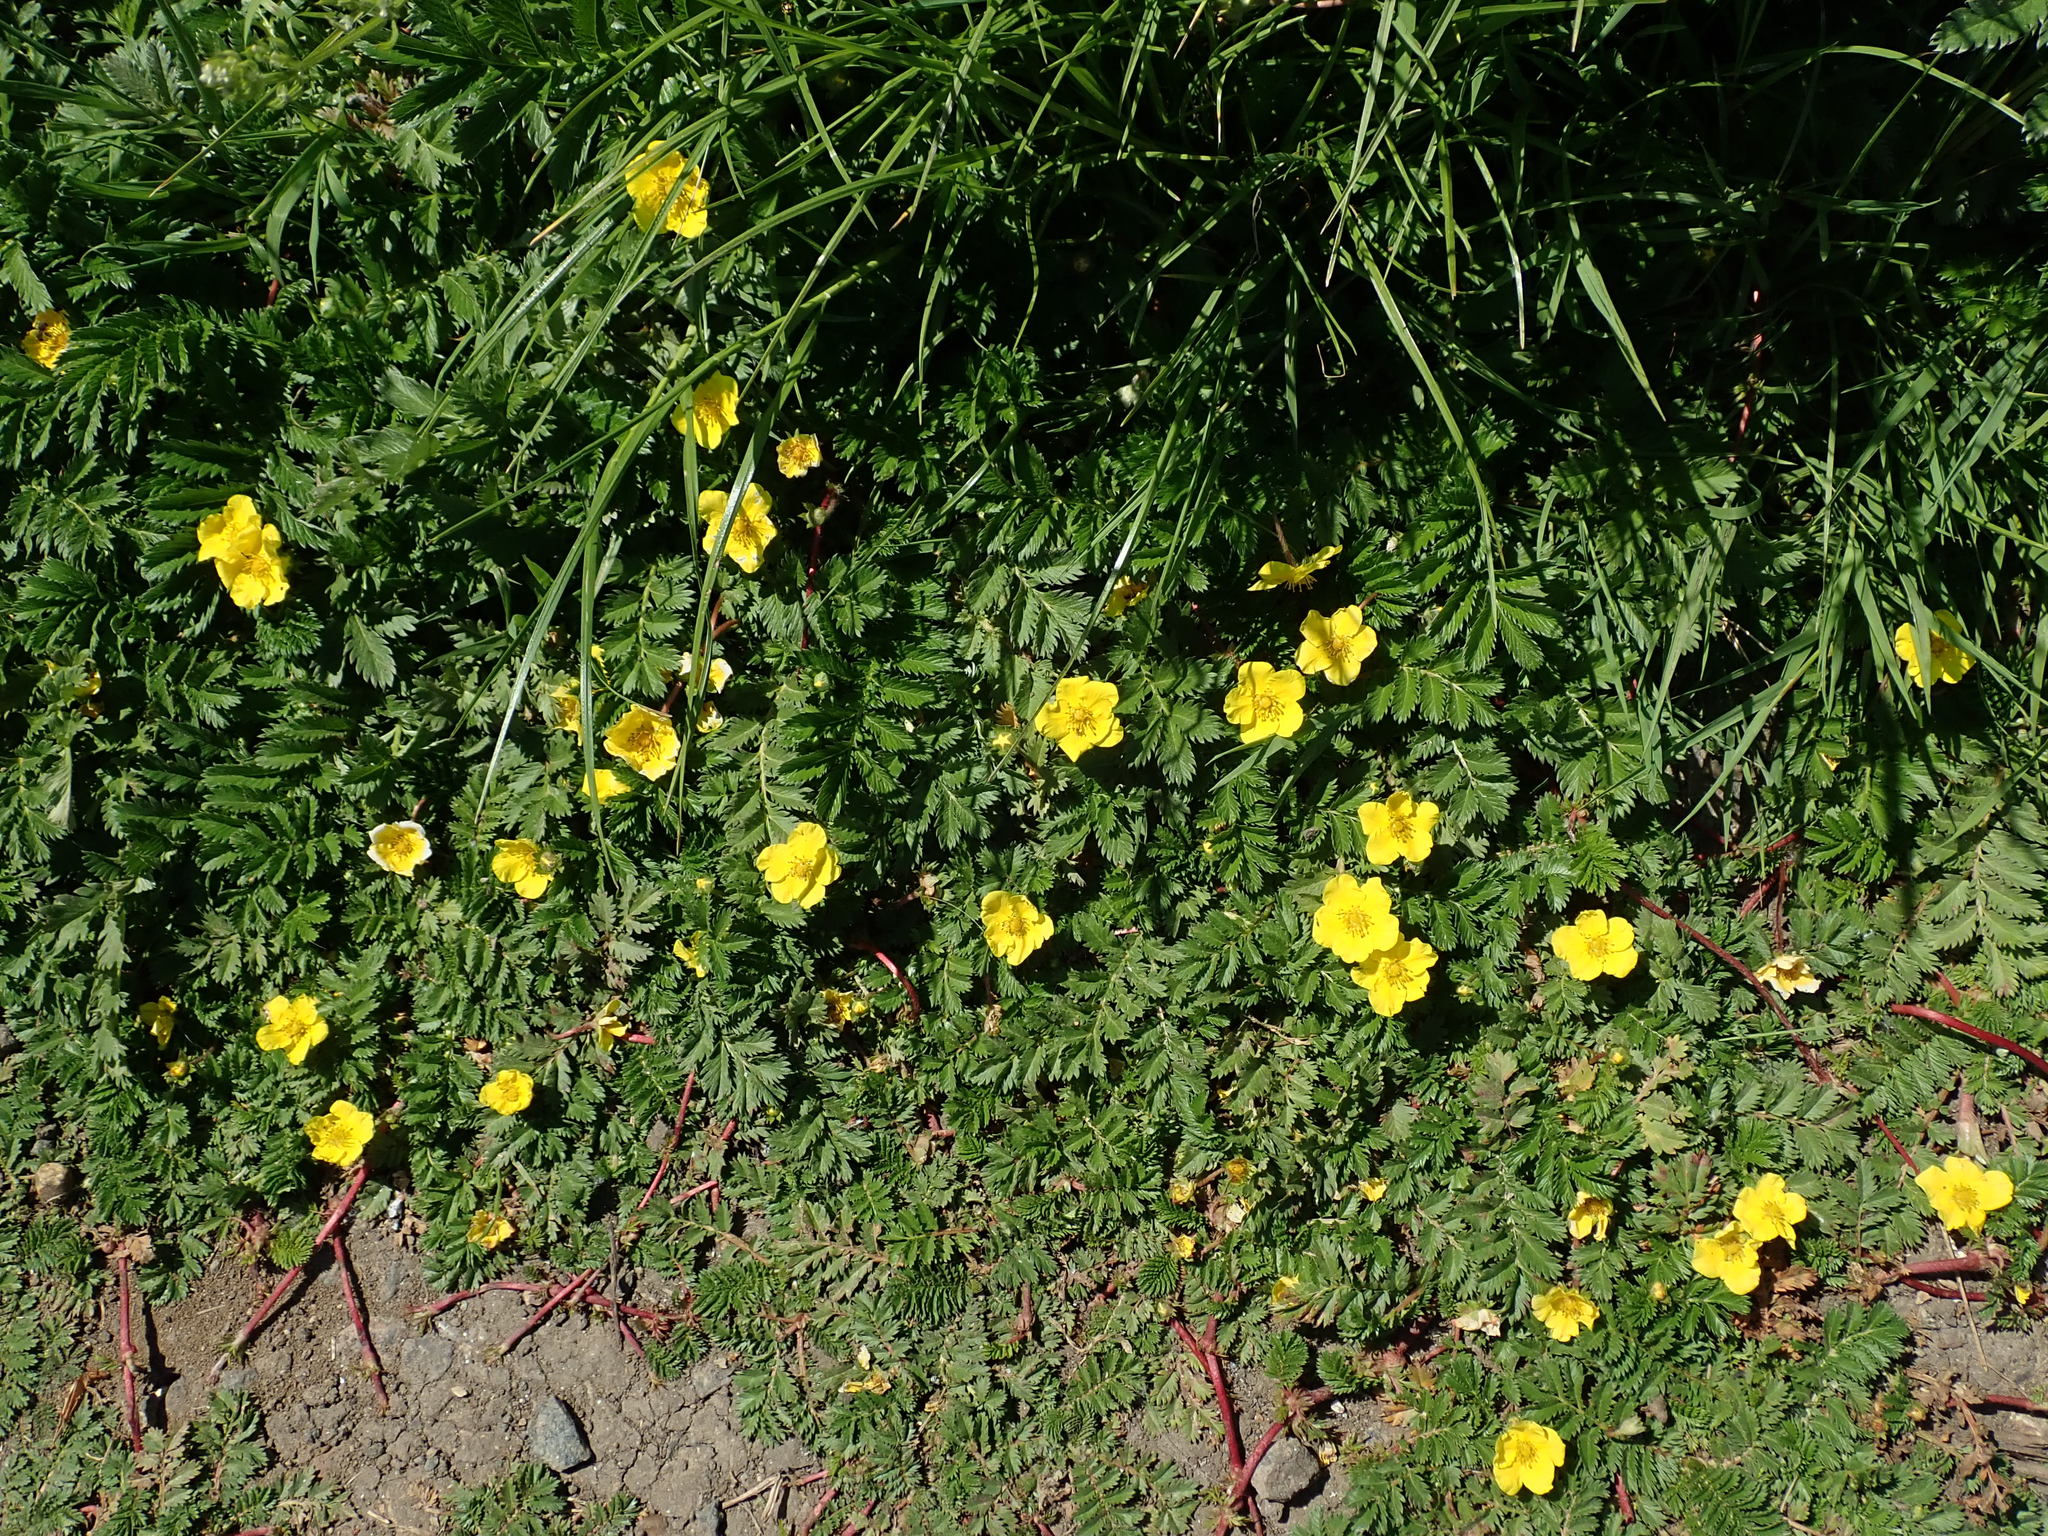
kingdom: Plantae
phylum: Tracheophyta
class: Magnoliopsida
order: Rosales
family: Rosaceae
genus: Argentina
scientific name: Argentina anserina
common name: Common silverweed
